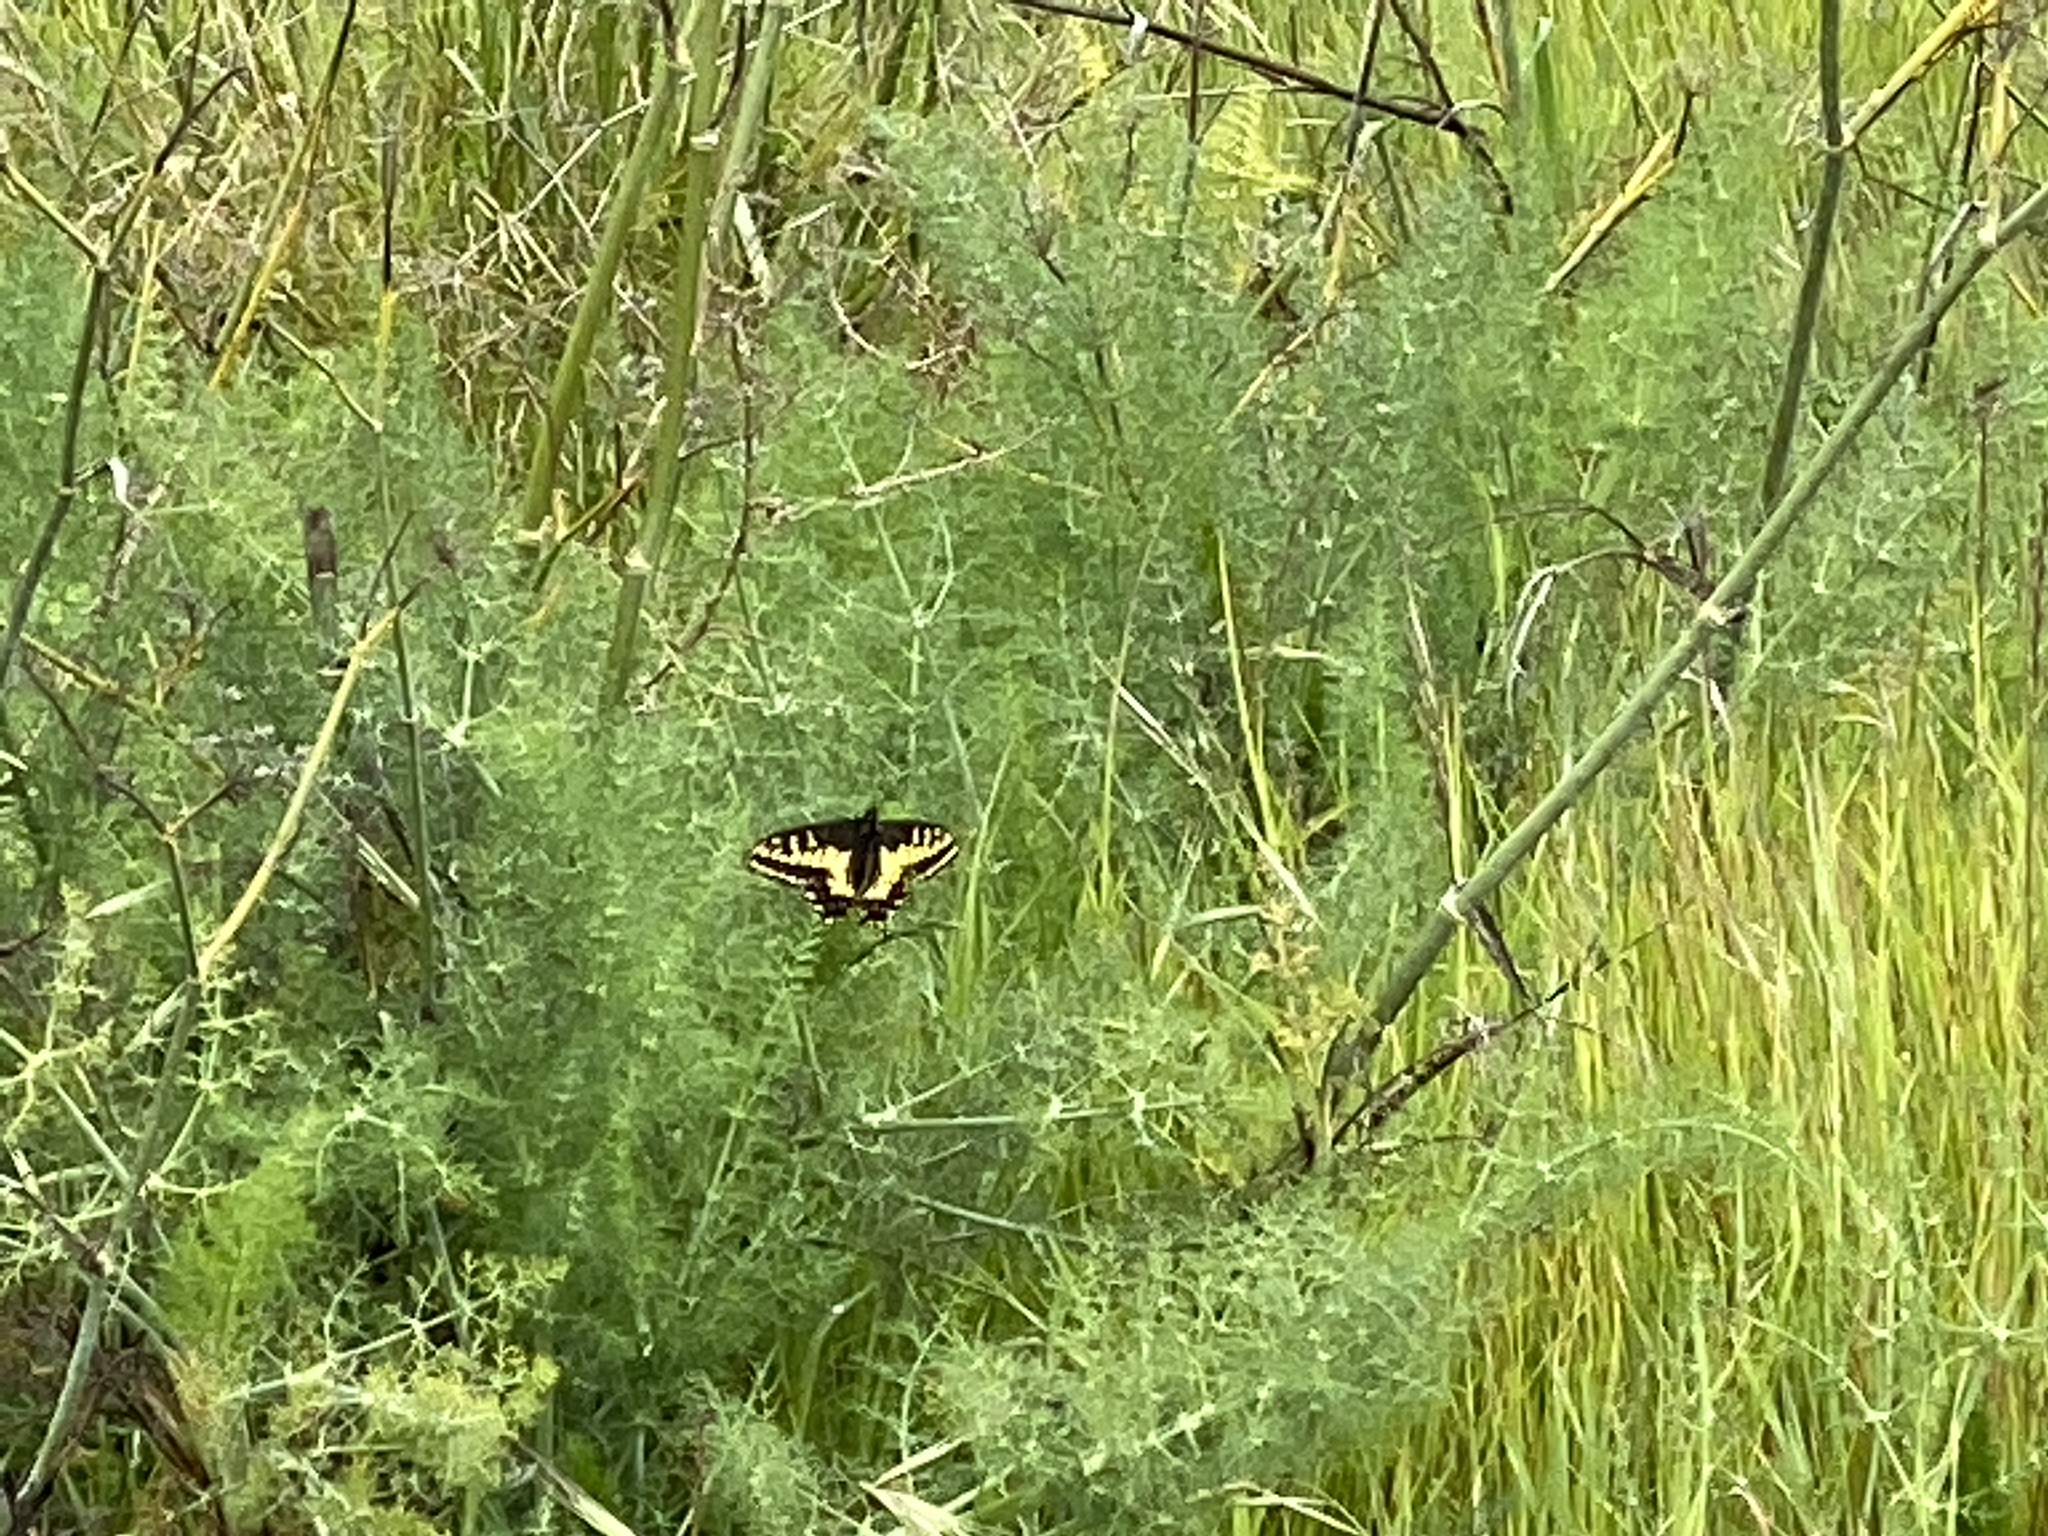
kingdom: Animalia
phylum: Arthropoda
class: Insecta
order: Lepidoptera
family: Papilionidae
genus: Papilio
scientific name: Papilio zelicaon
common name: Anise swallowtail
